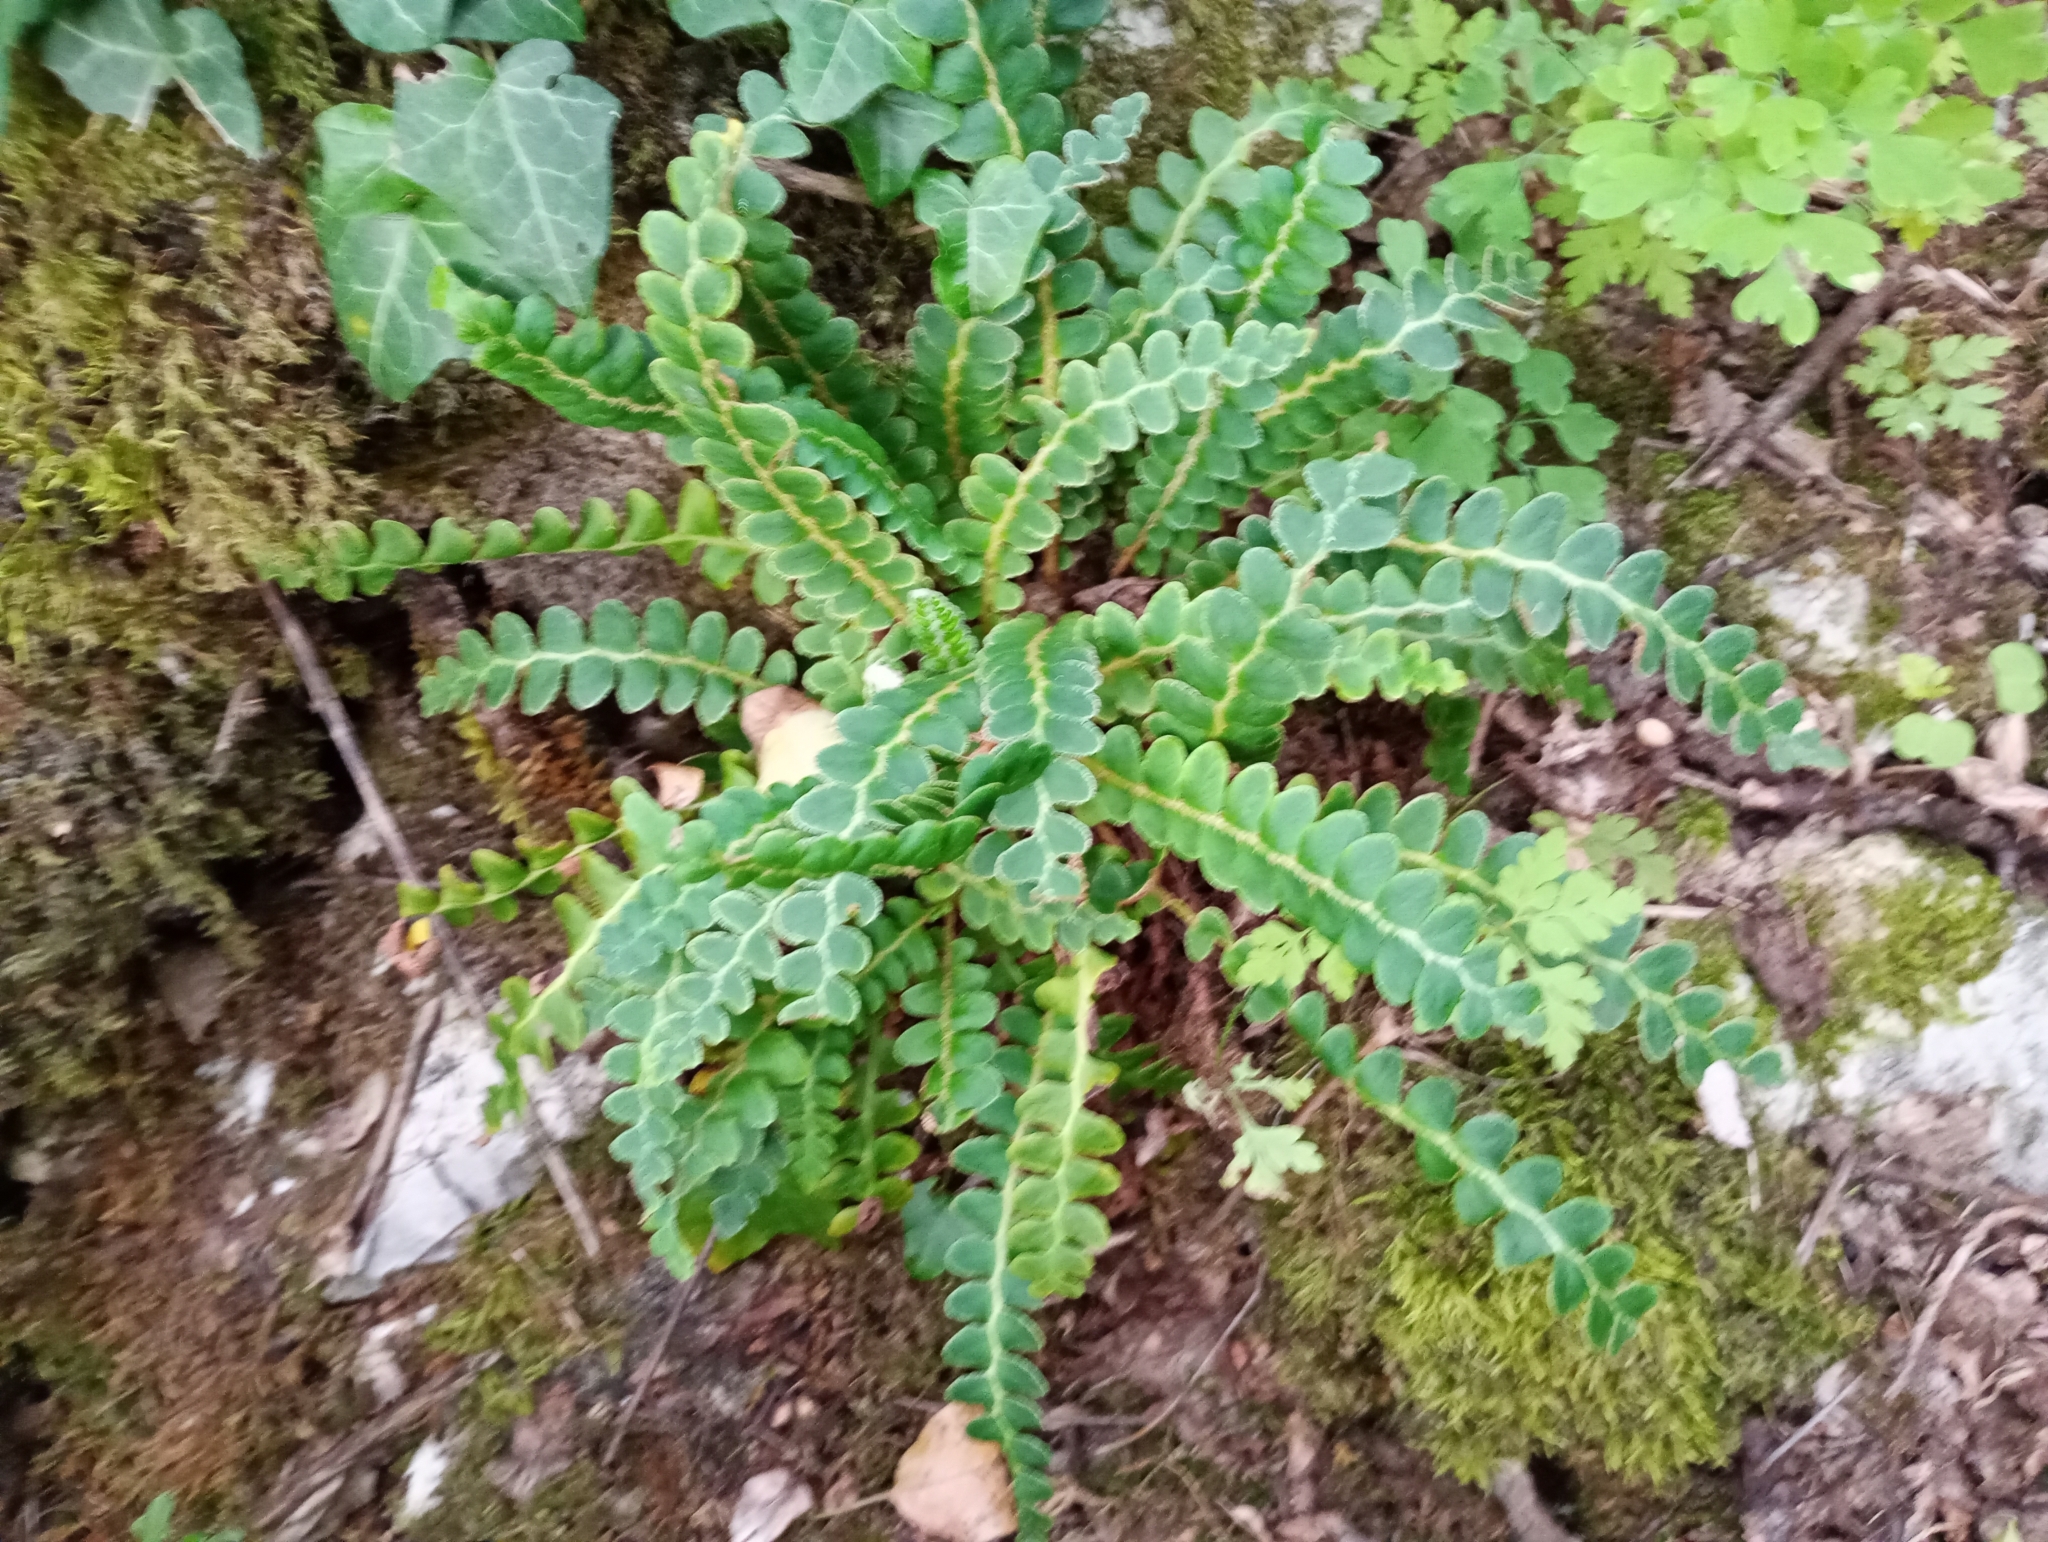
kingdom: Plantae
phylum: Tracheophyta
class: Polypodiopsida
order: Polypodiales
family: Aspleniaceae
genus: Asplenium
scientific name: Asplenium ceterach
